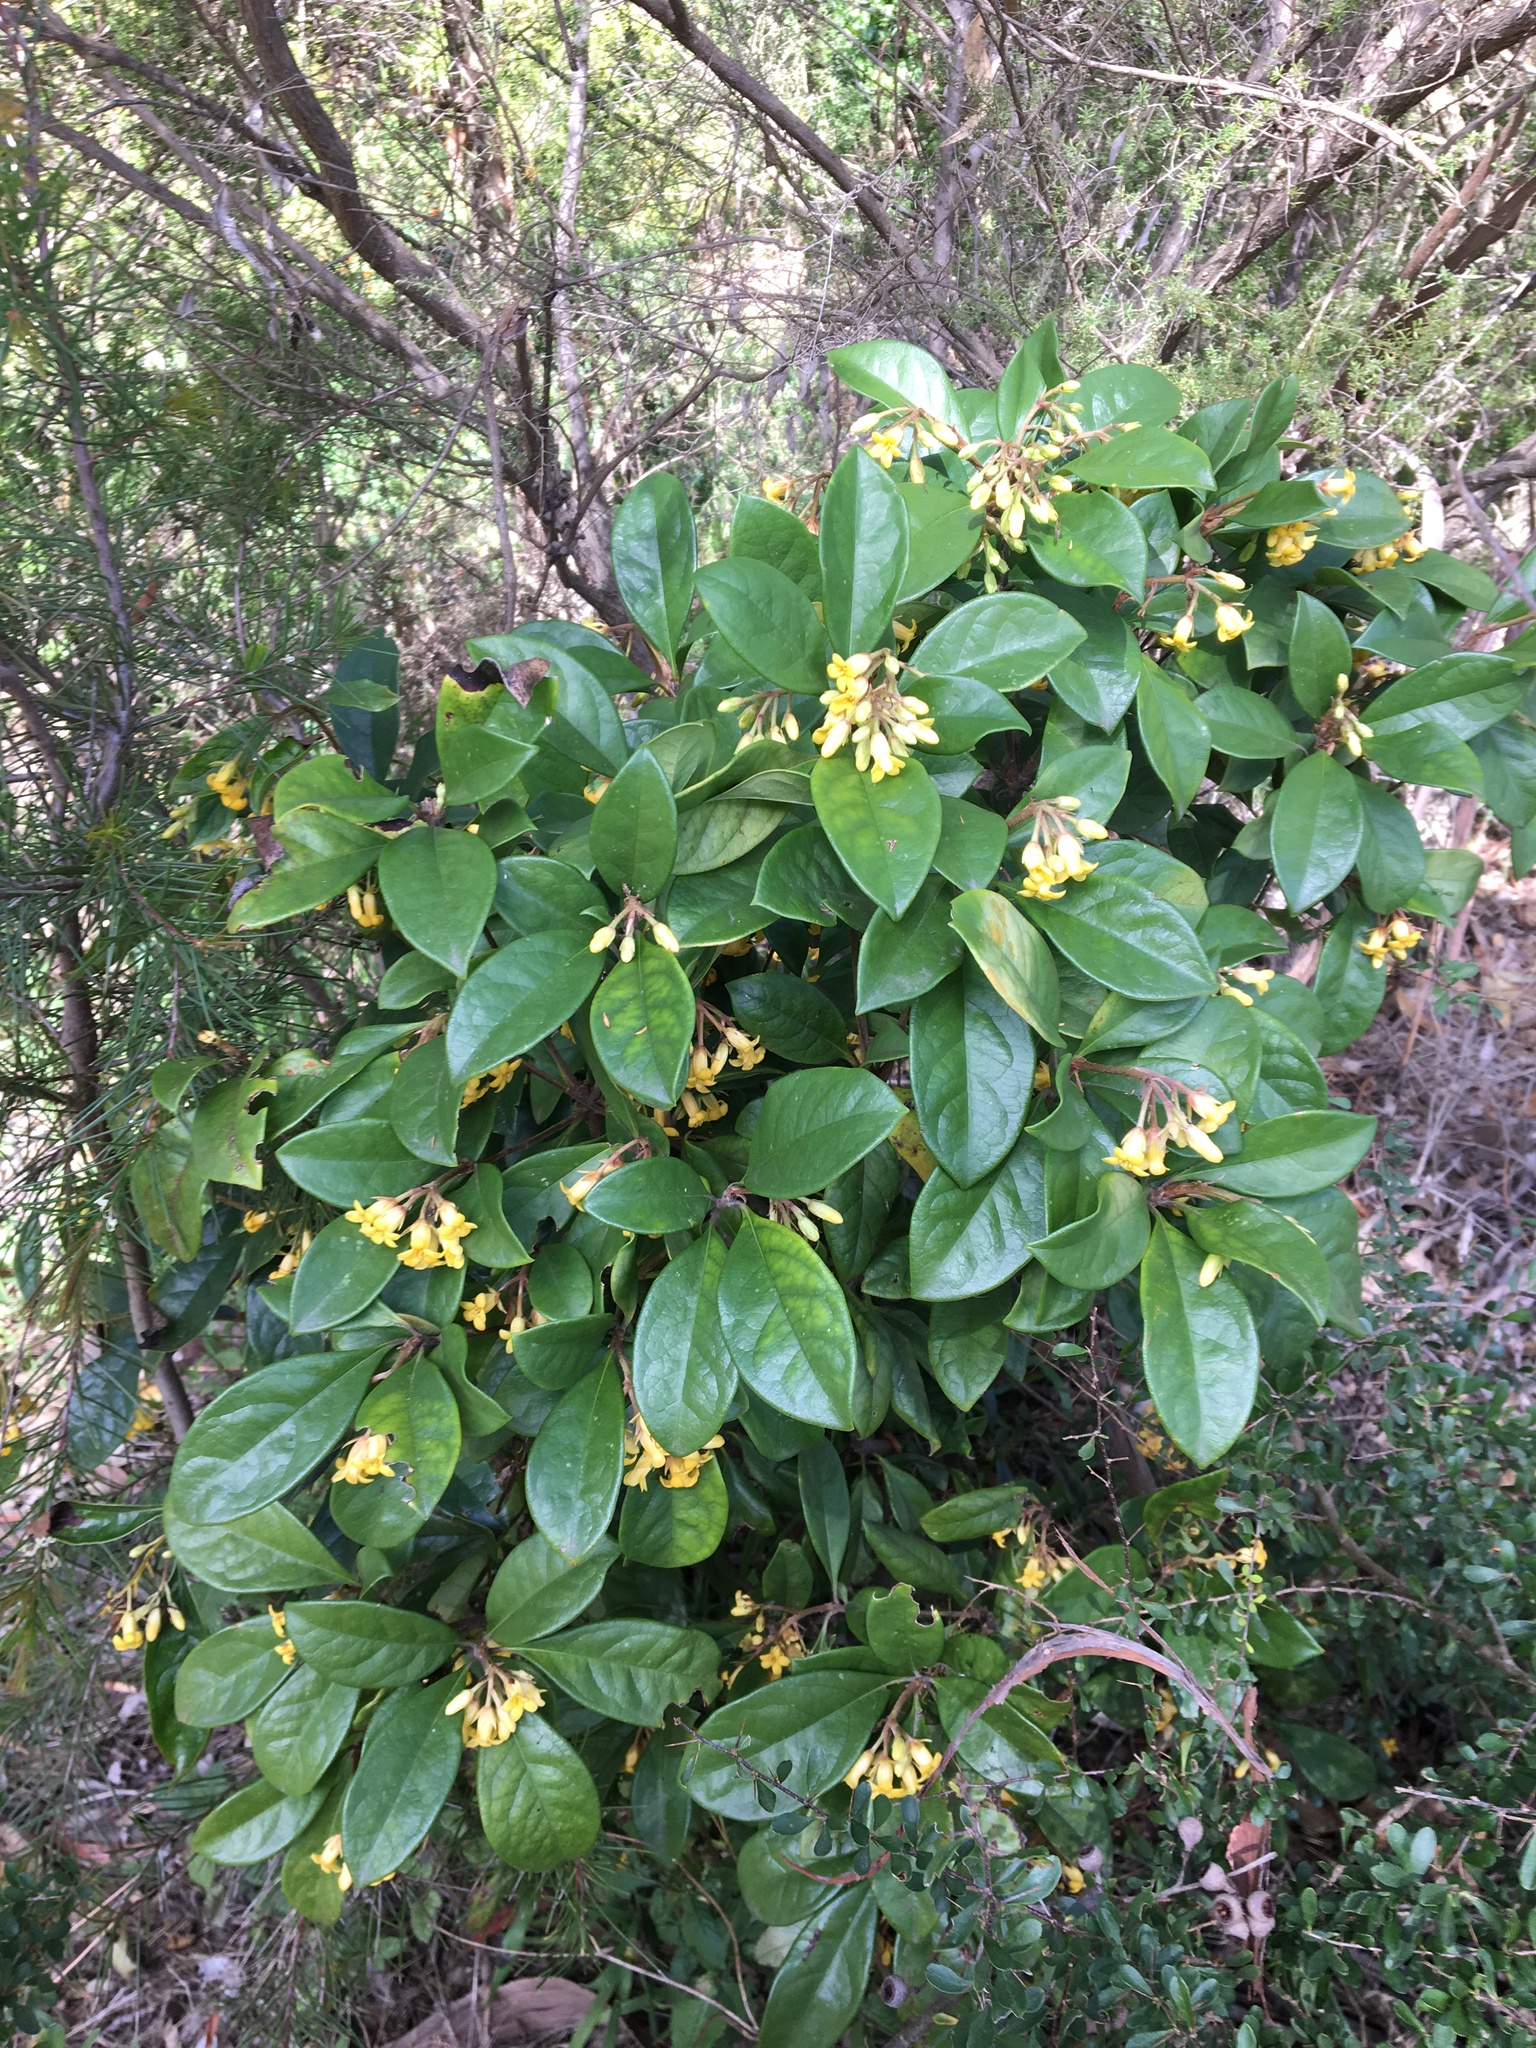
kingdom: Plantae
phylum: Tracheophyta
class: Magnoliopsida
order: Apiales
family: Pittosporaceae
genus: Pittosporum
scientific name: Pittosporum revolutum
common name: Brisbane-laurel
